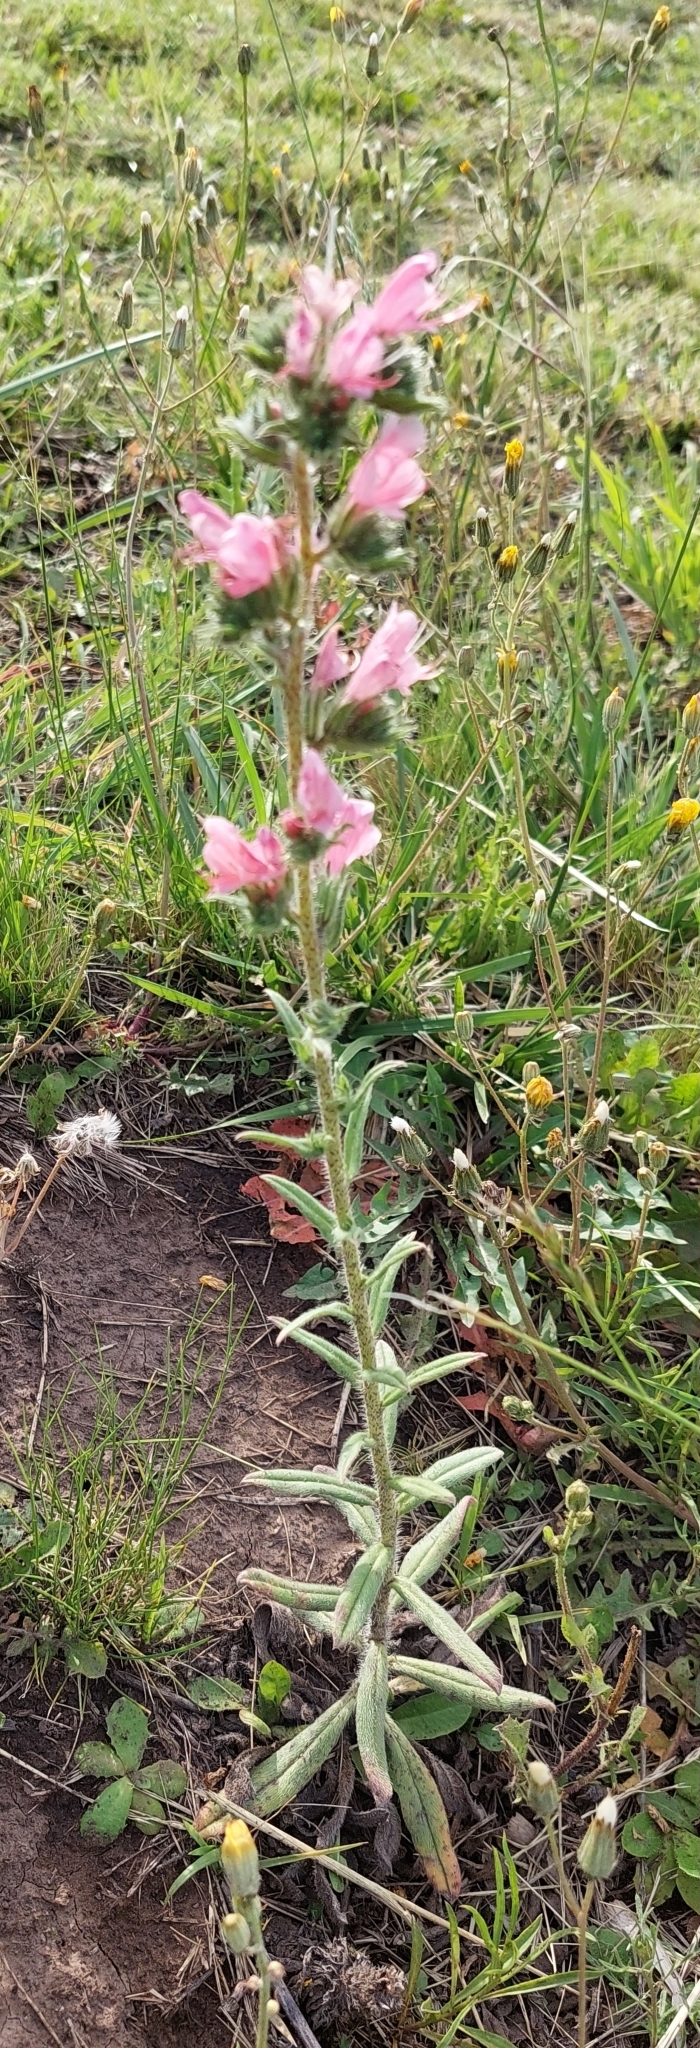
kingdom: Plantae
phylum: Tracheophyta
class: Magnoliopsida
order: Boraginales
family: Boraginaceae
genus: Echium
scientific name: Echium vulgare
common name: Common viper's bugloss
